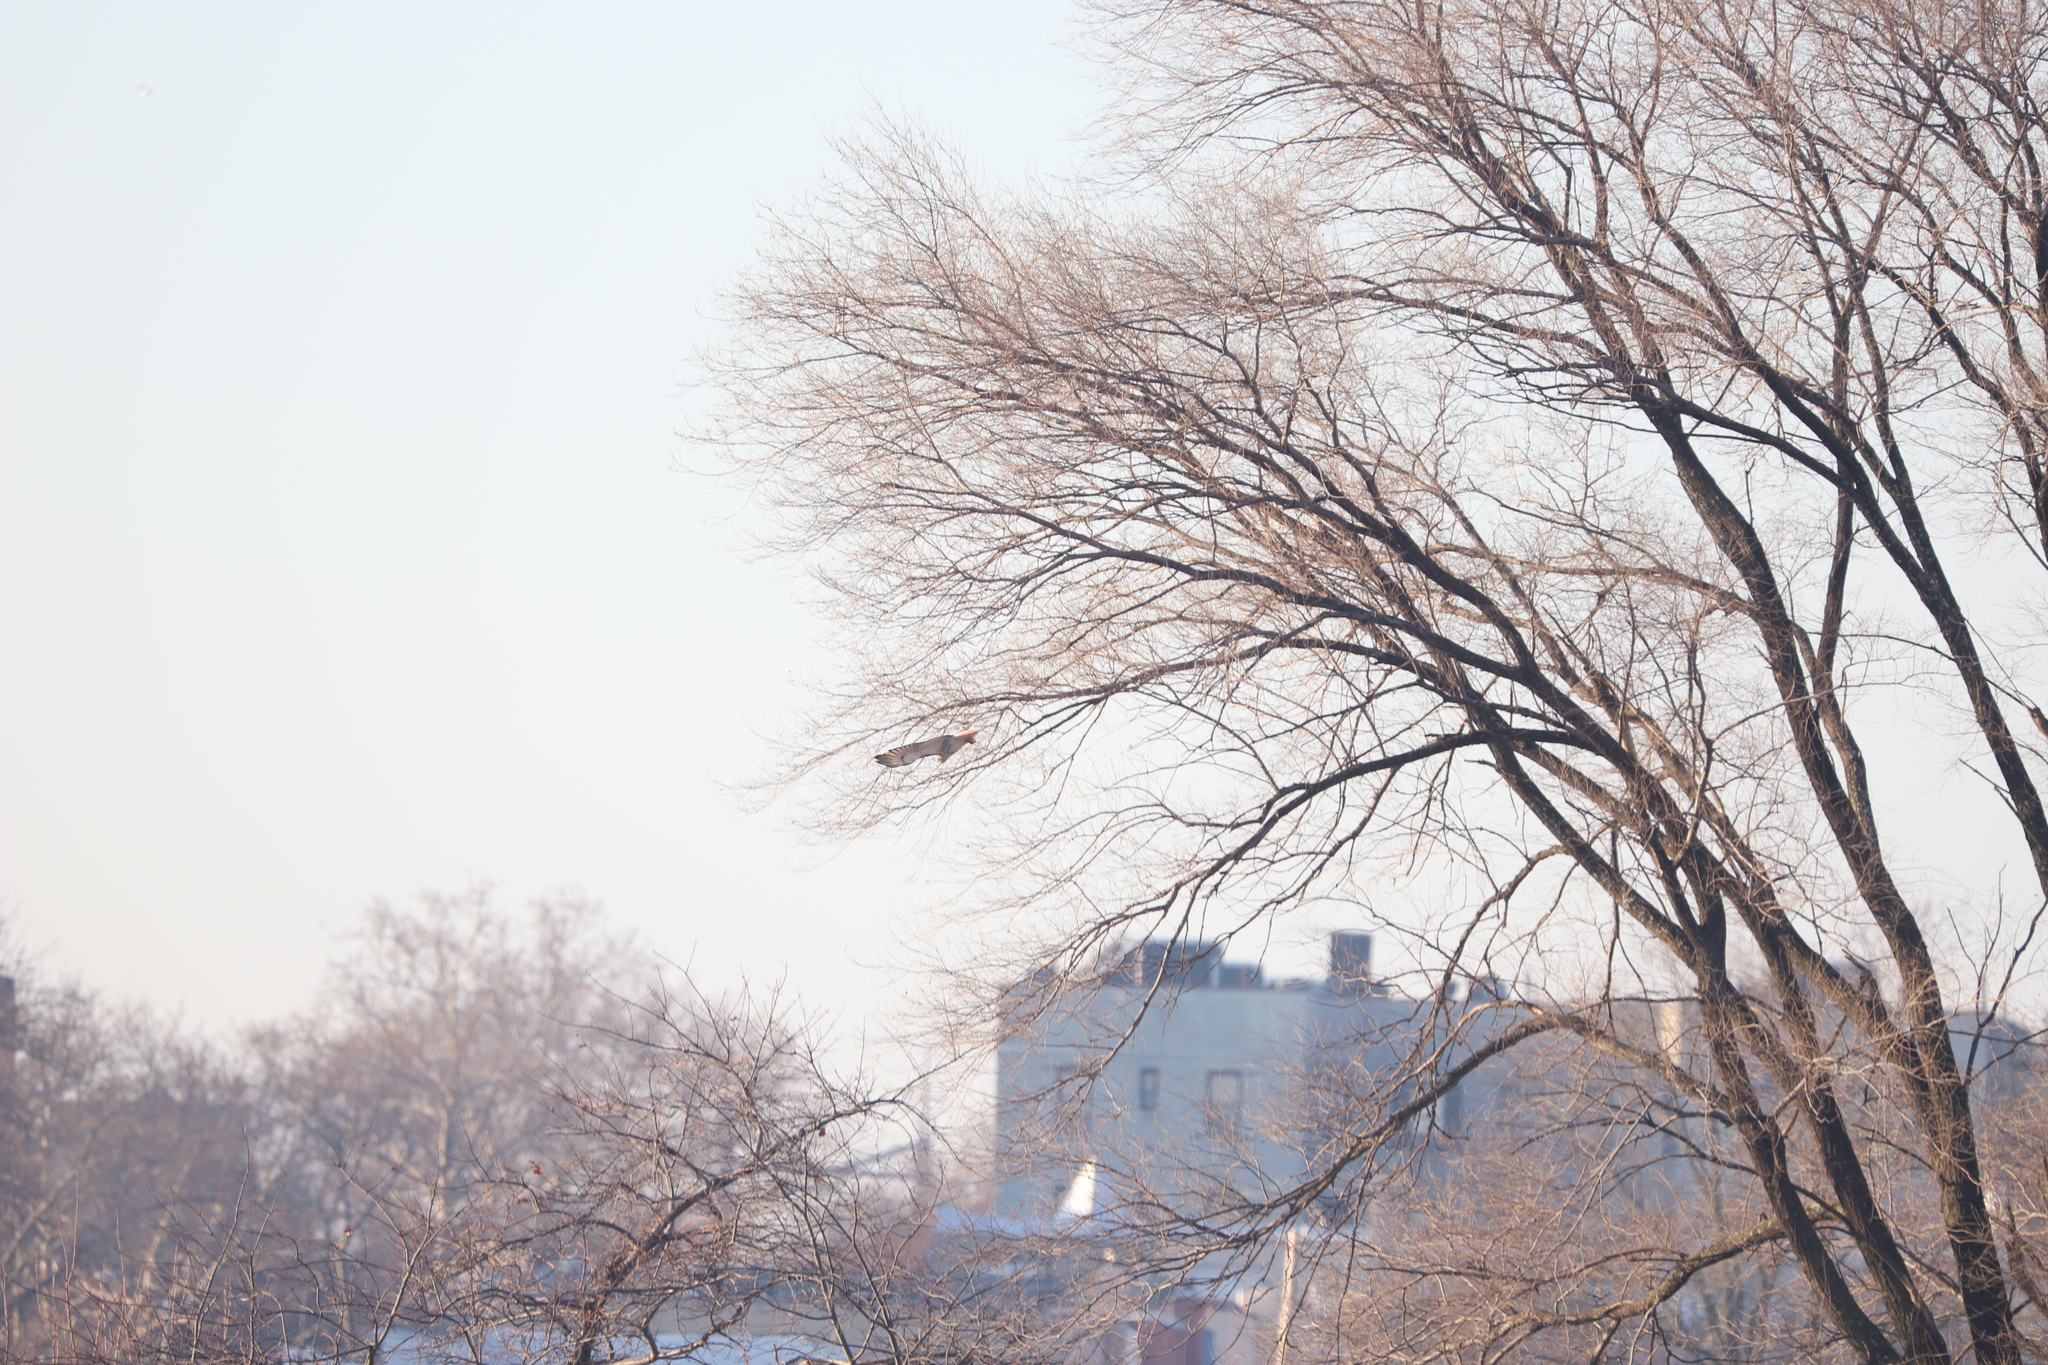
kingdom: Animalia
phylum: Chordata
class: Aves
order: Accipitriformes
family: Accipitridae
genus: Buteo
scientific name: Buteo jamaicensis
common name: Red-tailed hawk
